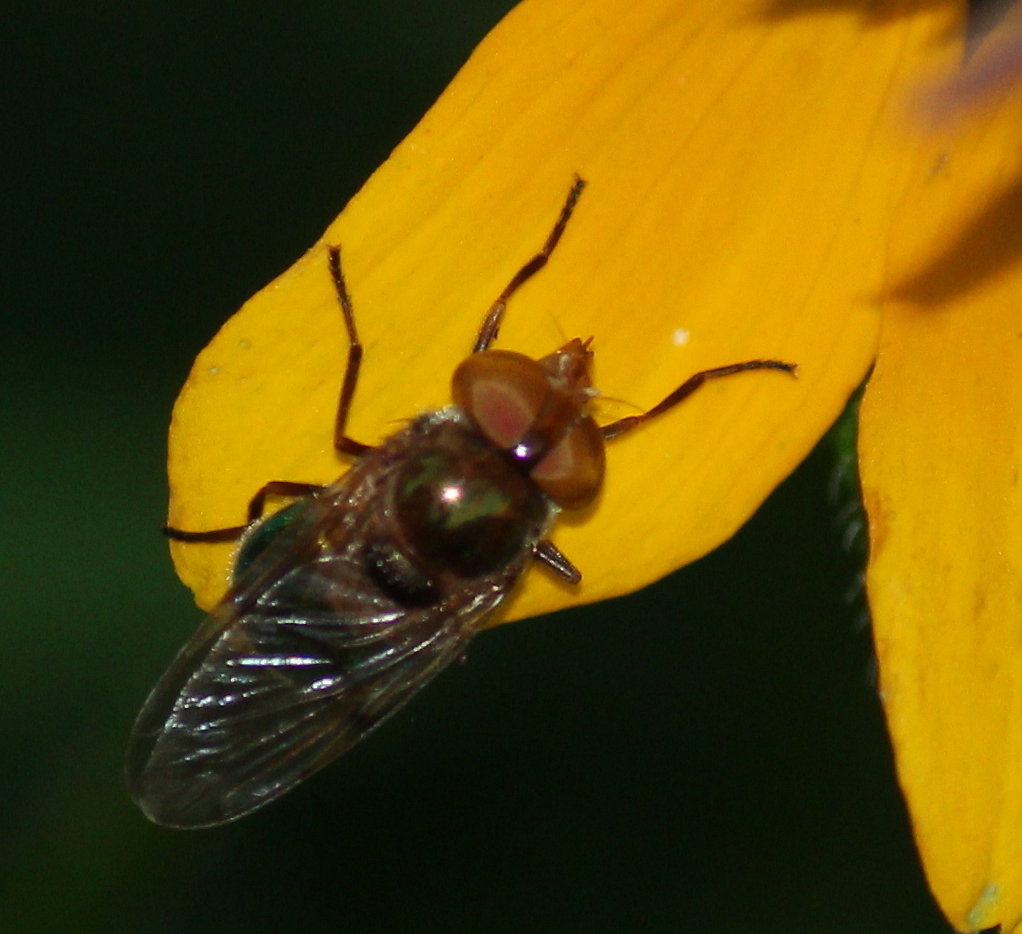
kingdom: Animalia
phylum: Arthropoda
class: Insecta
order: Diptera
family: Syrphidae
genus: Copestylum
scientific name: Copestylum vesicularium
